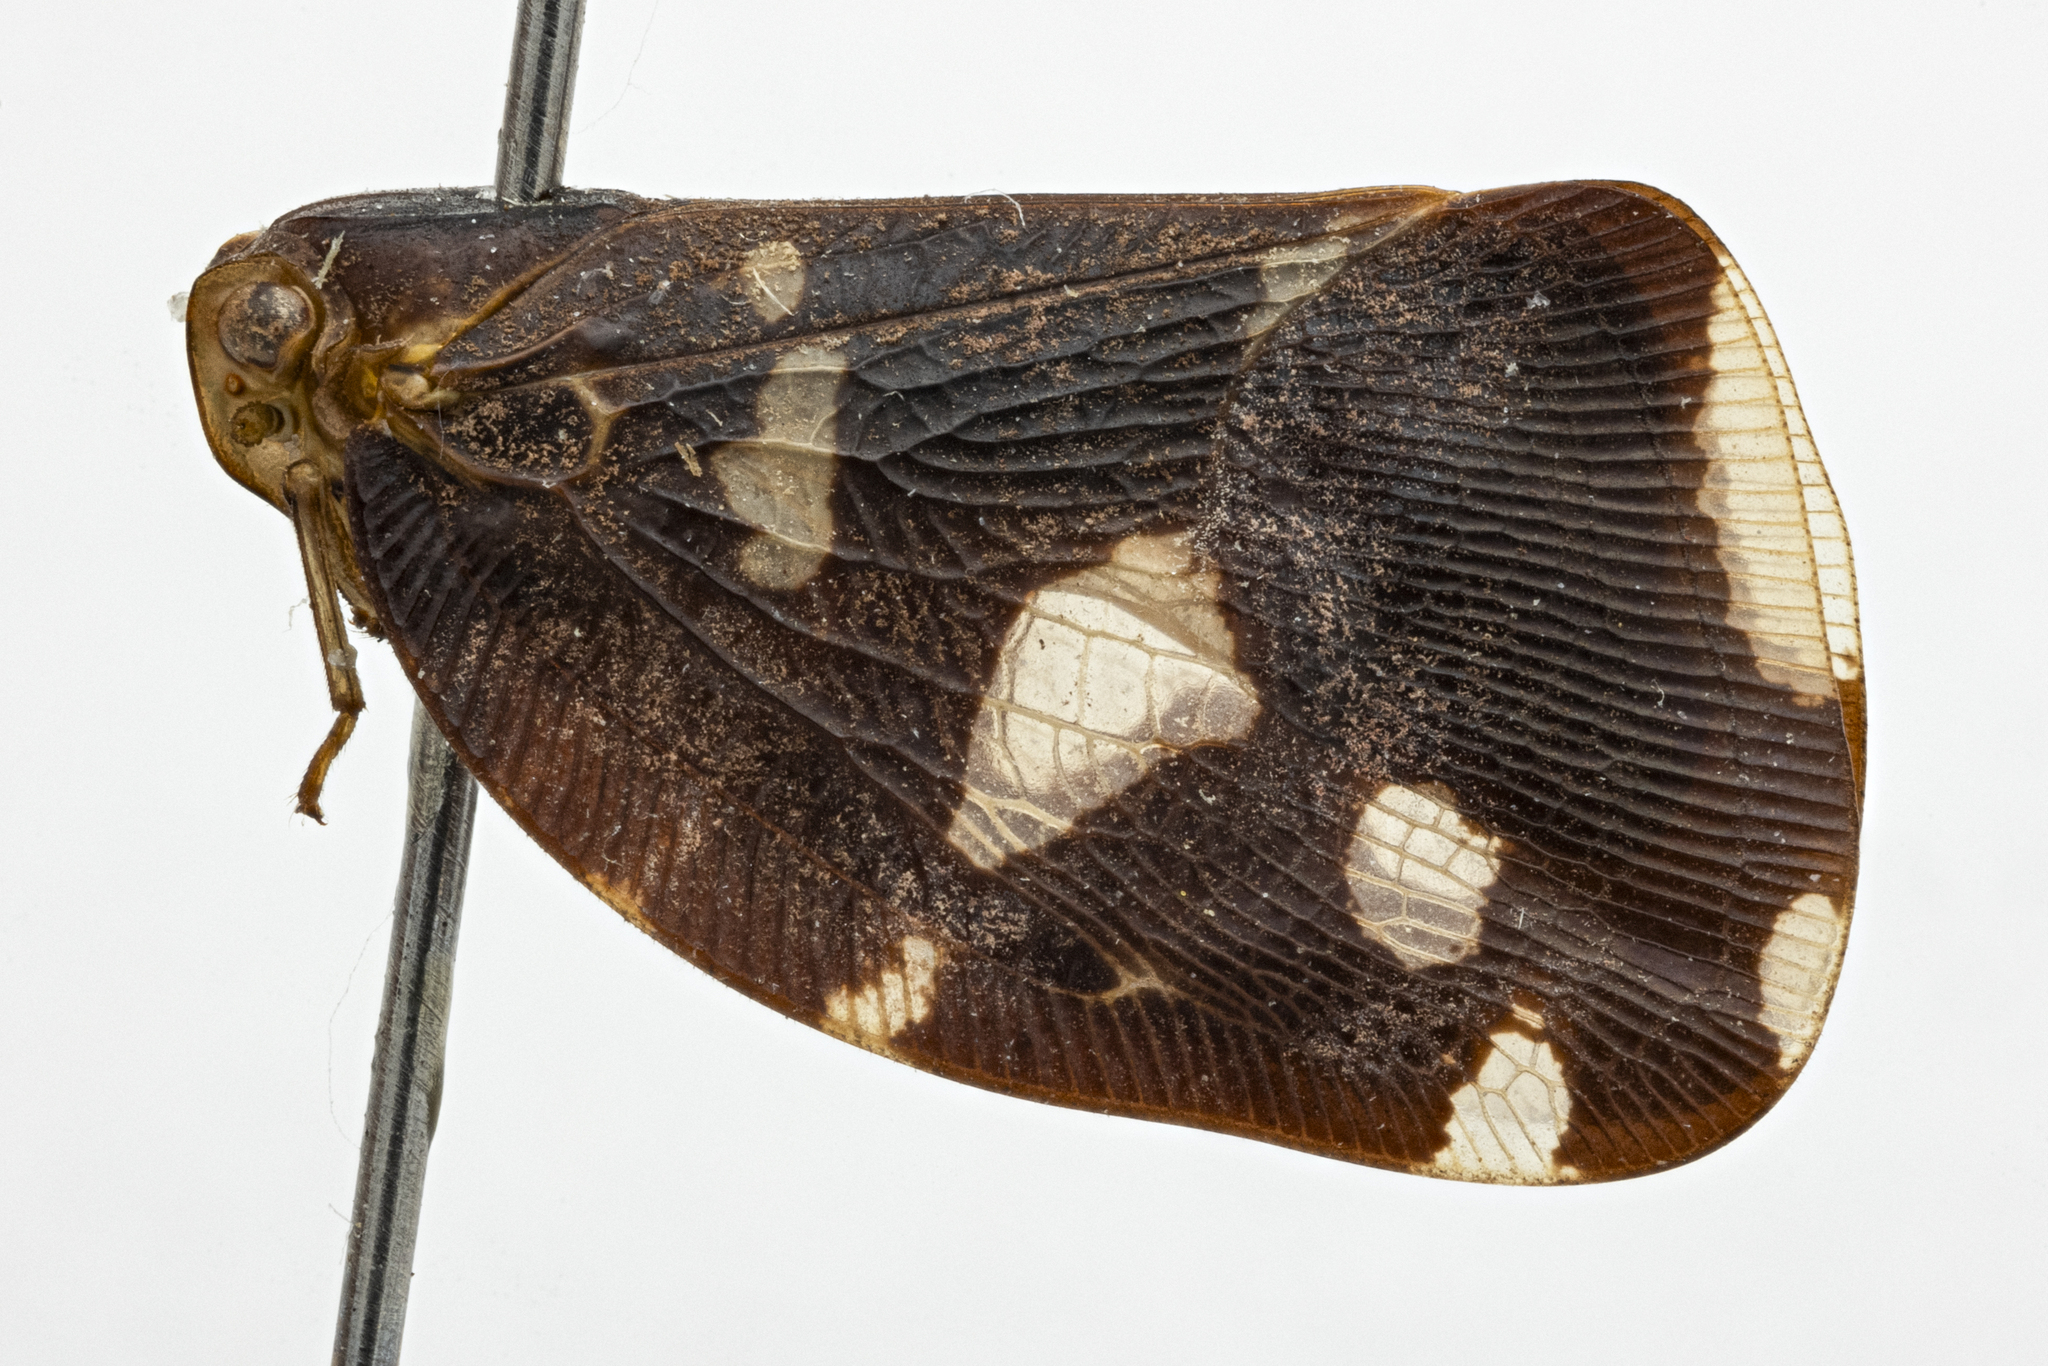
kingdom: Animalia
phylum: Arthropoda
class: Insecta
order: Hemiptera
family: Nogodinidae
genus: Vutina
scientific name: Vutina sexmaculata
